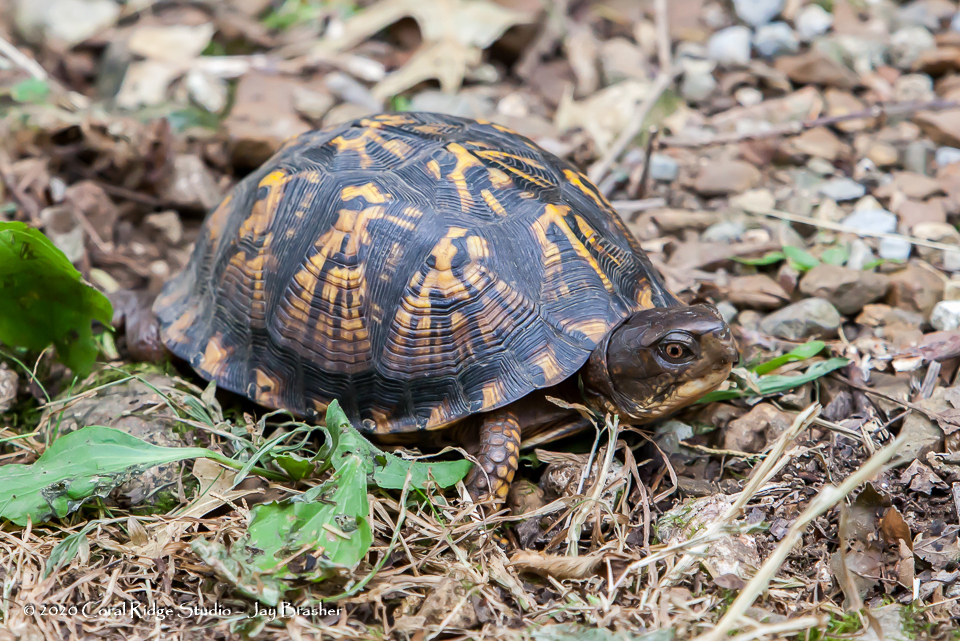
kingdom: Animalia
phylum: Chordata
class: Testudines
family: Emydidae
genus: Terrapene
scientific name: Terrapene carolina
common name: Common box turtle
